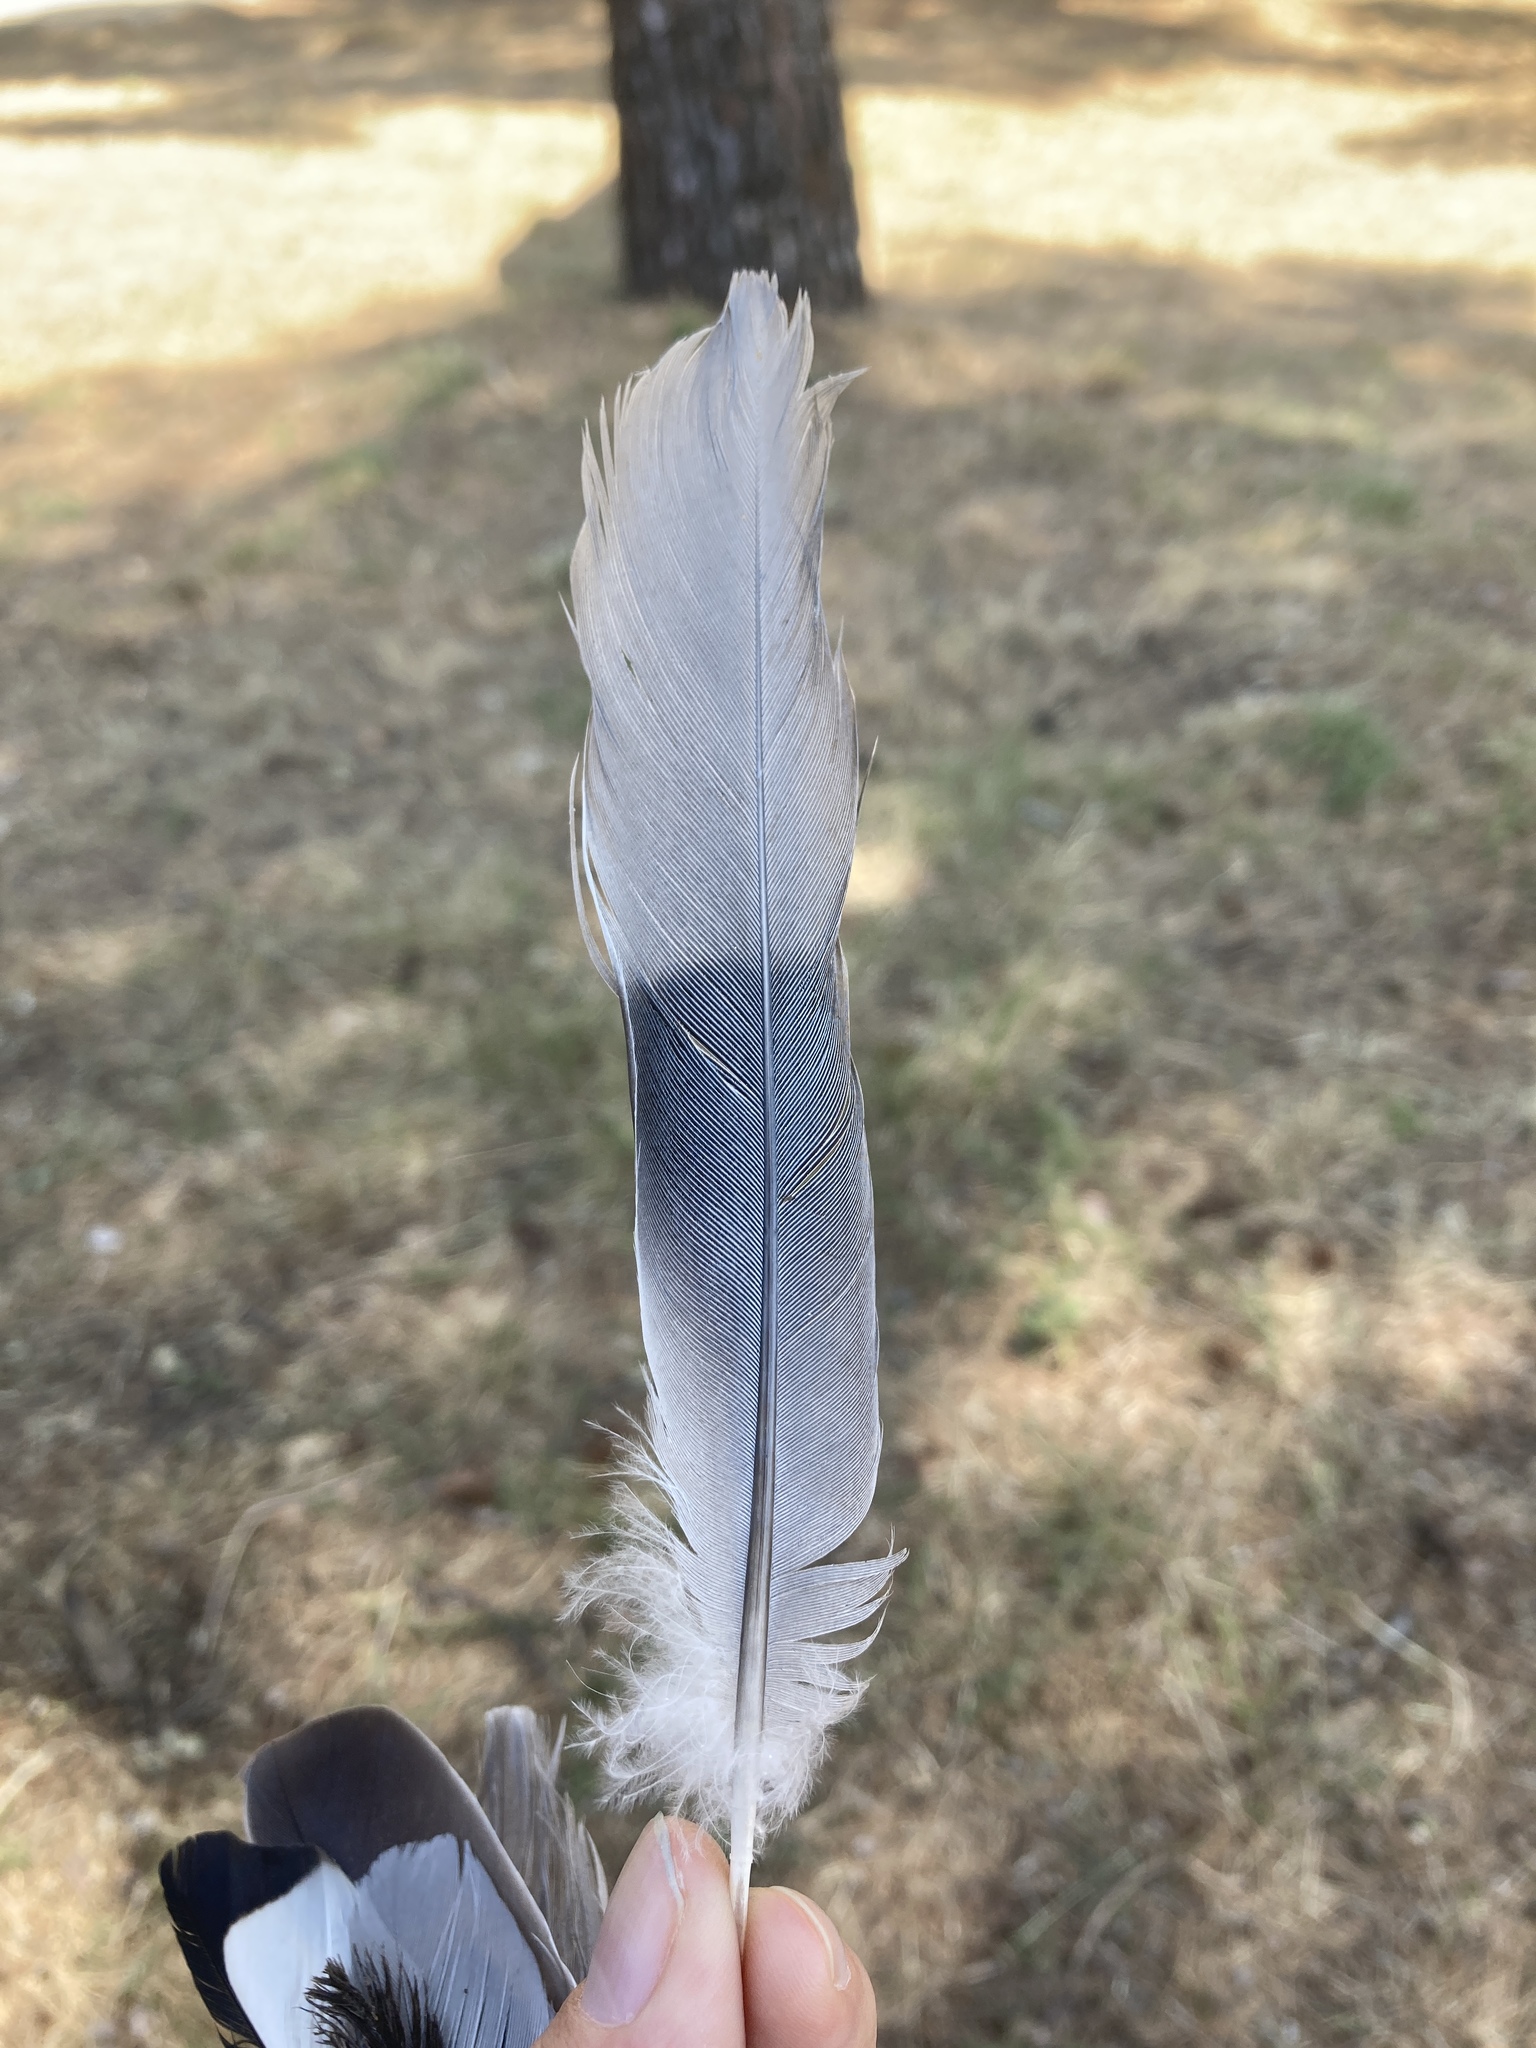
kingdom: Animalia
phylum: Chordata
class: Aves
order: Columbiformes
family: Columbidae
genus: Streptopelia
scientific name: Streptopelia decaocto
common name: Eurasian collared dove
